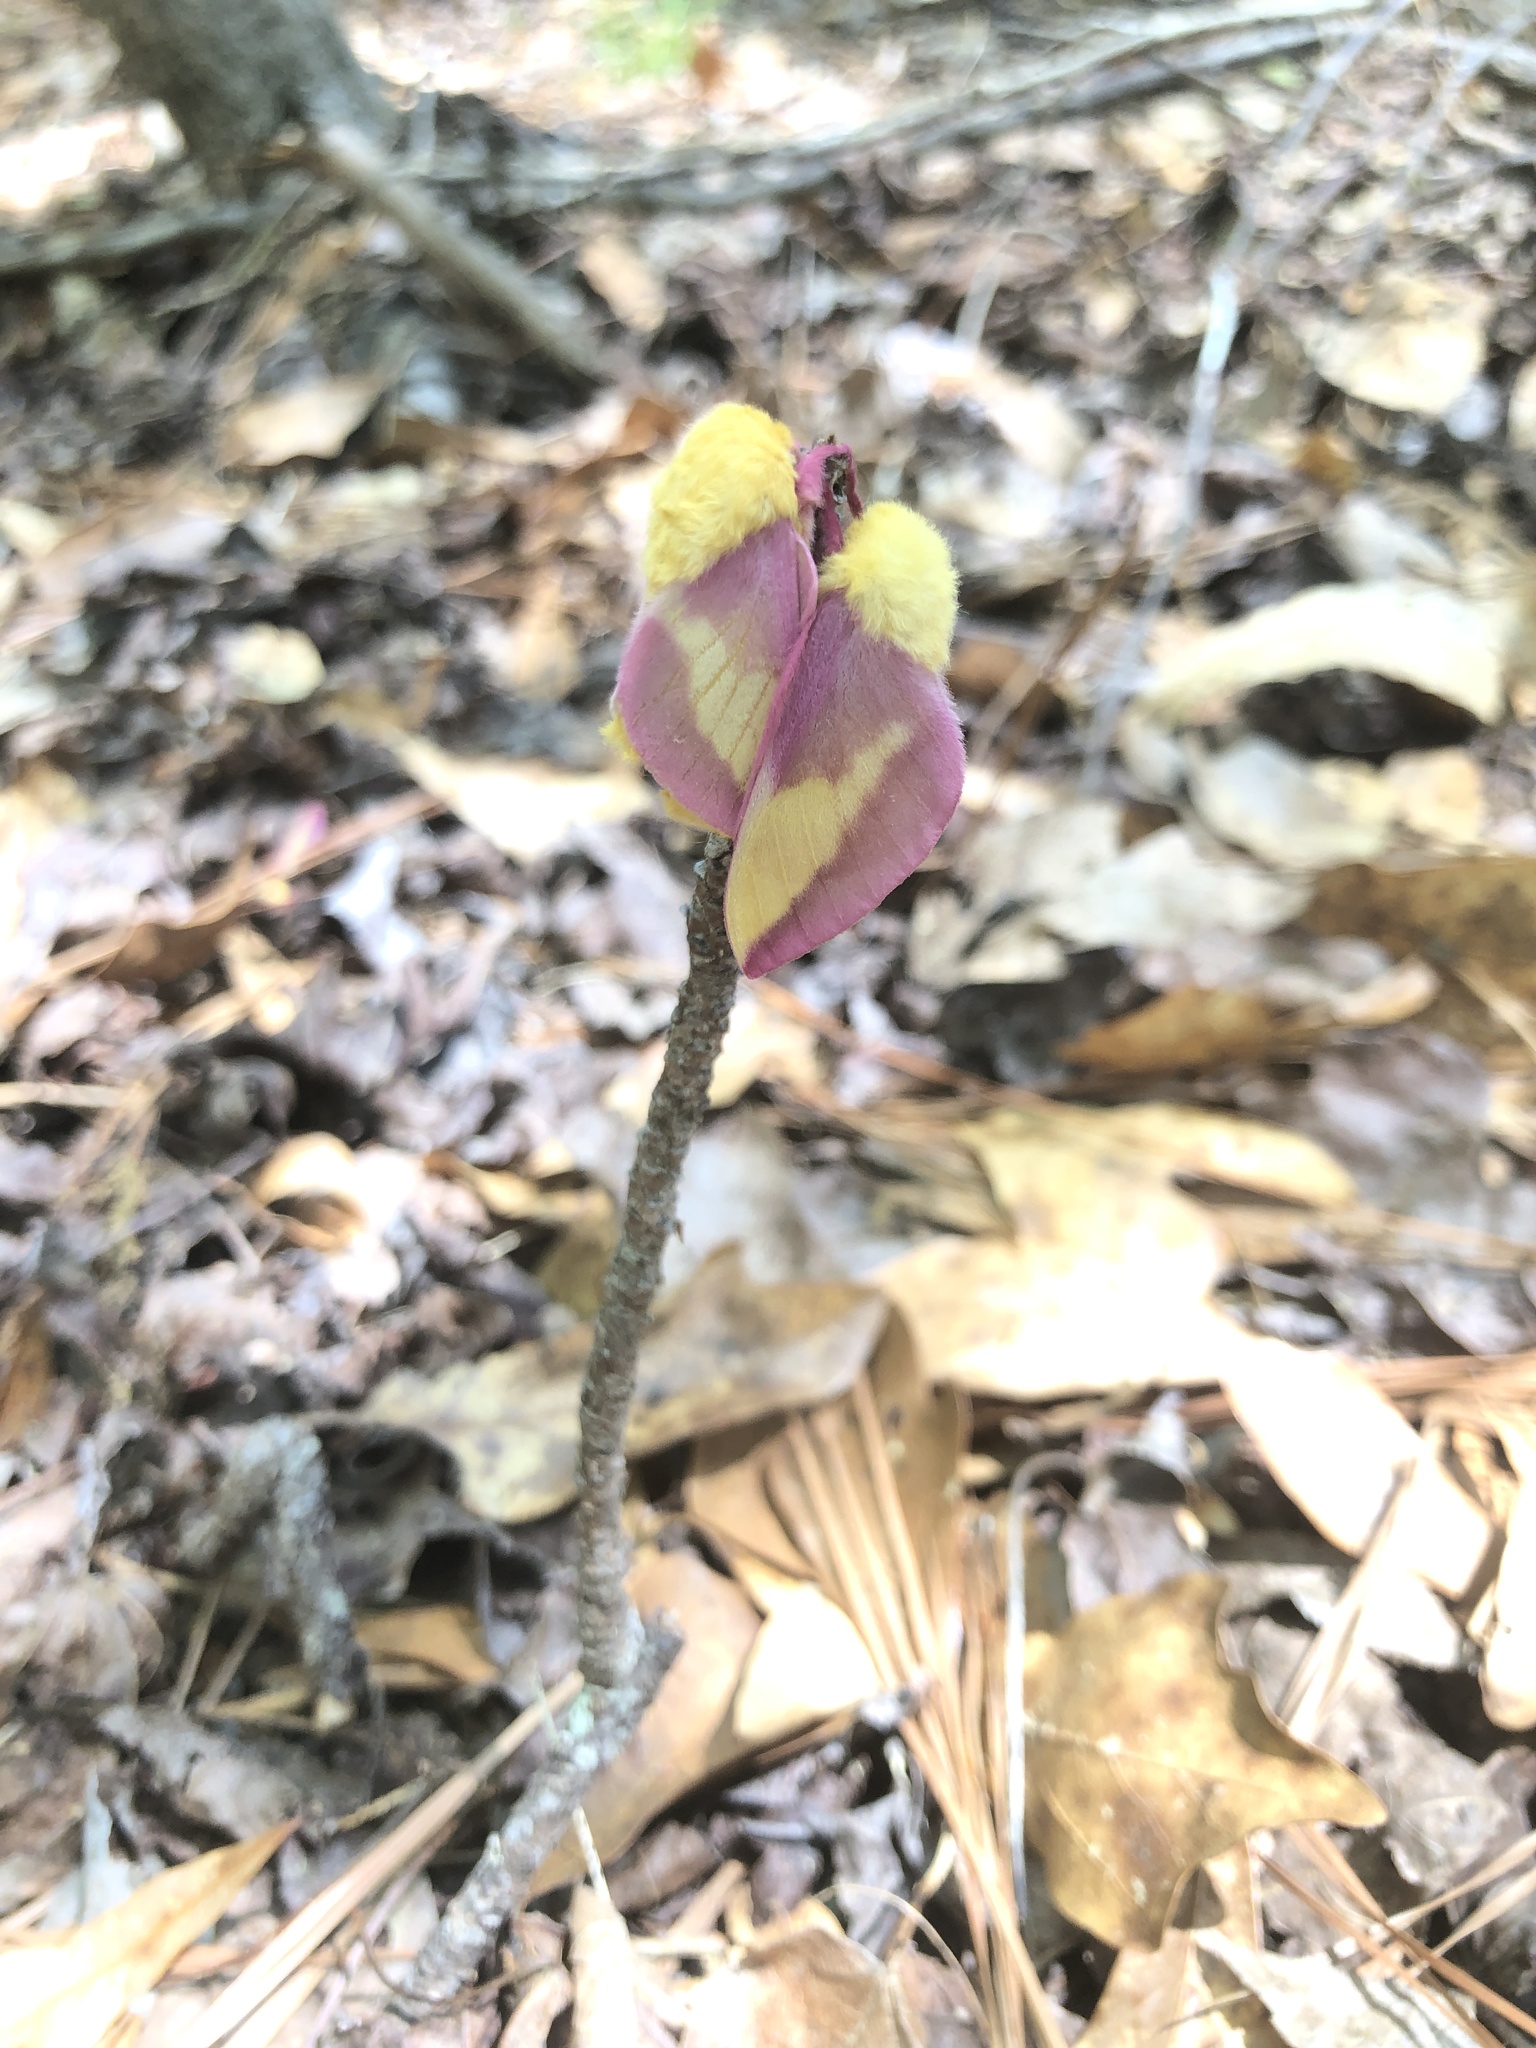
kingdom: Animalia
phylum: Arthropoda
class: Insecta
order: Lepidoptera
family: Saturniidae
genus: Dryocampa
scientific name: Dryocampa rubicunda
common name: Rosy maple moth
